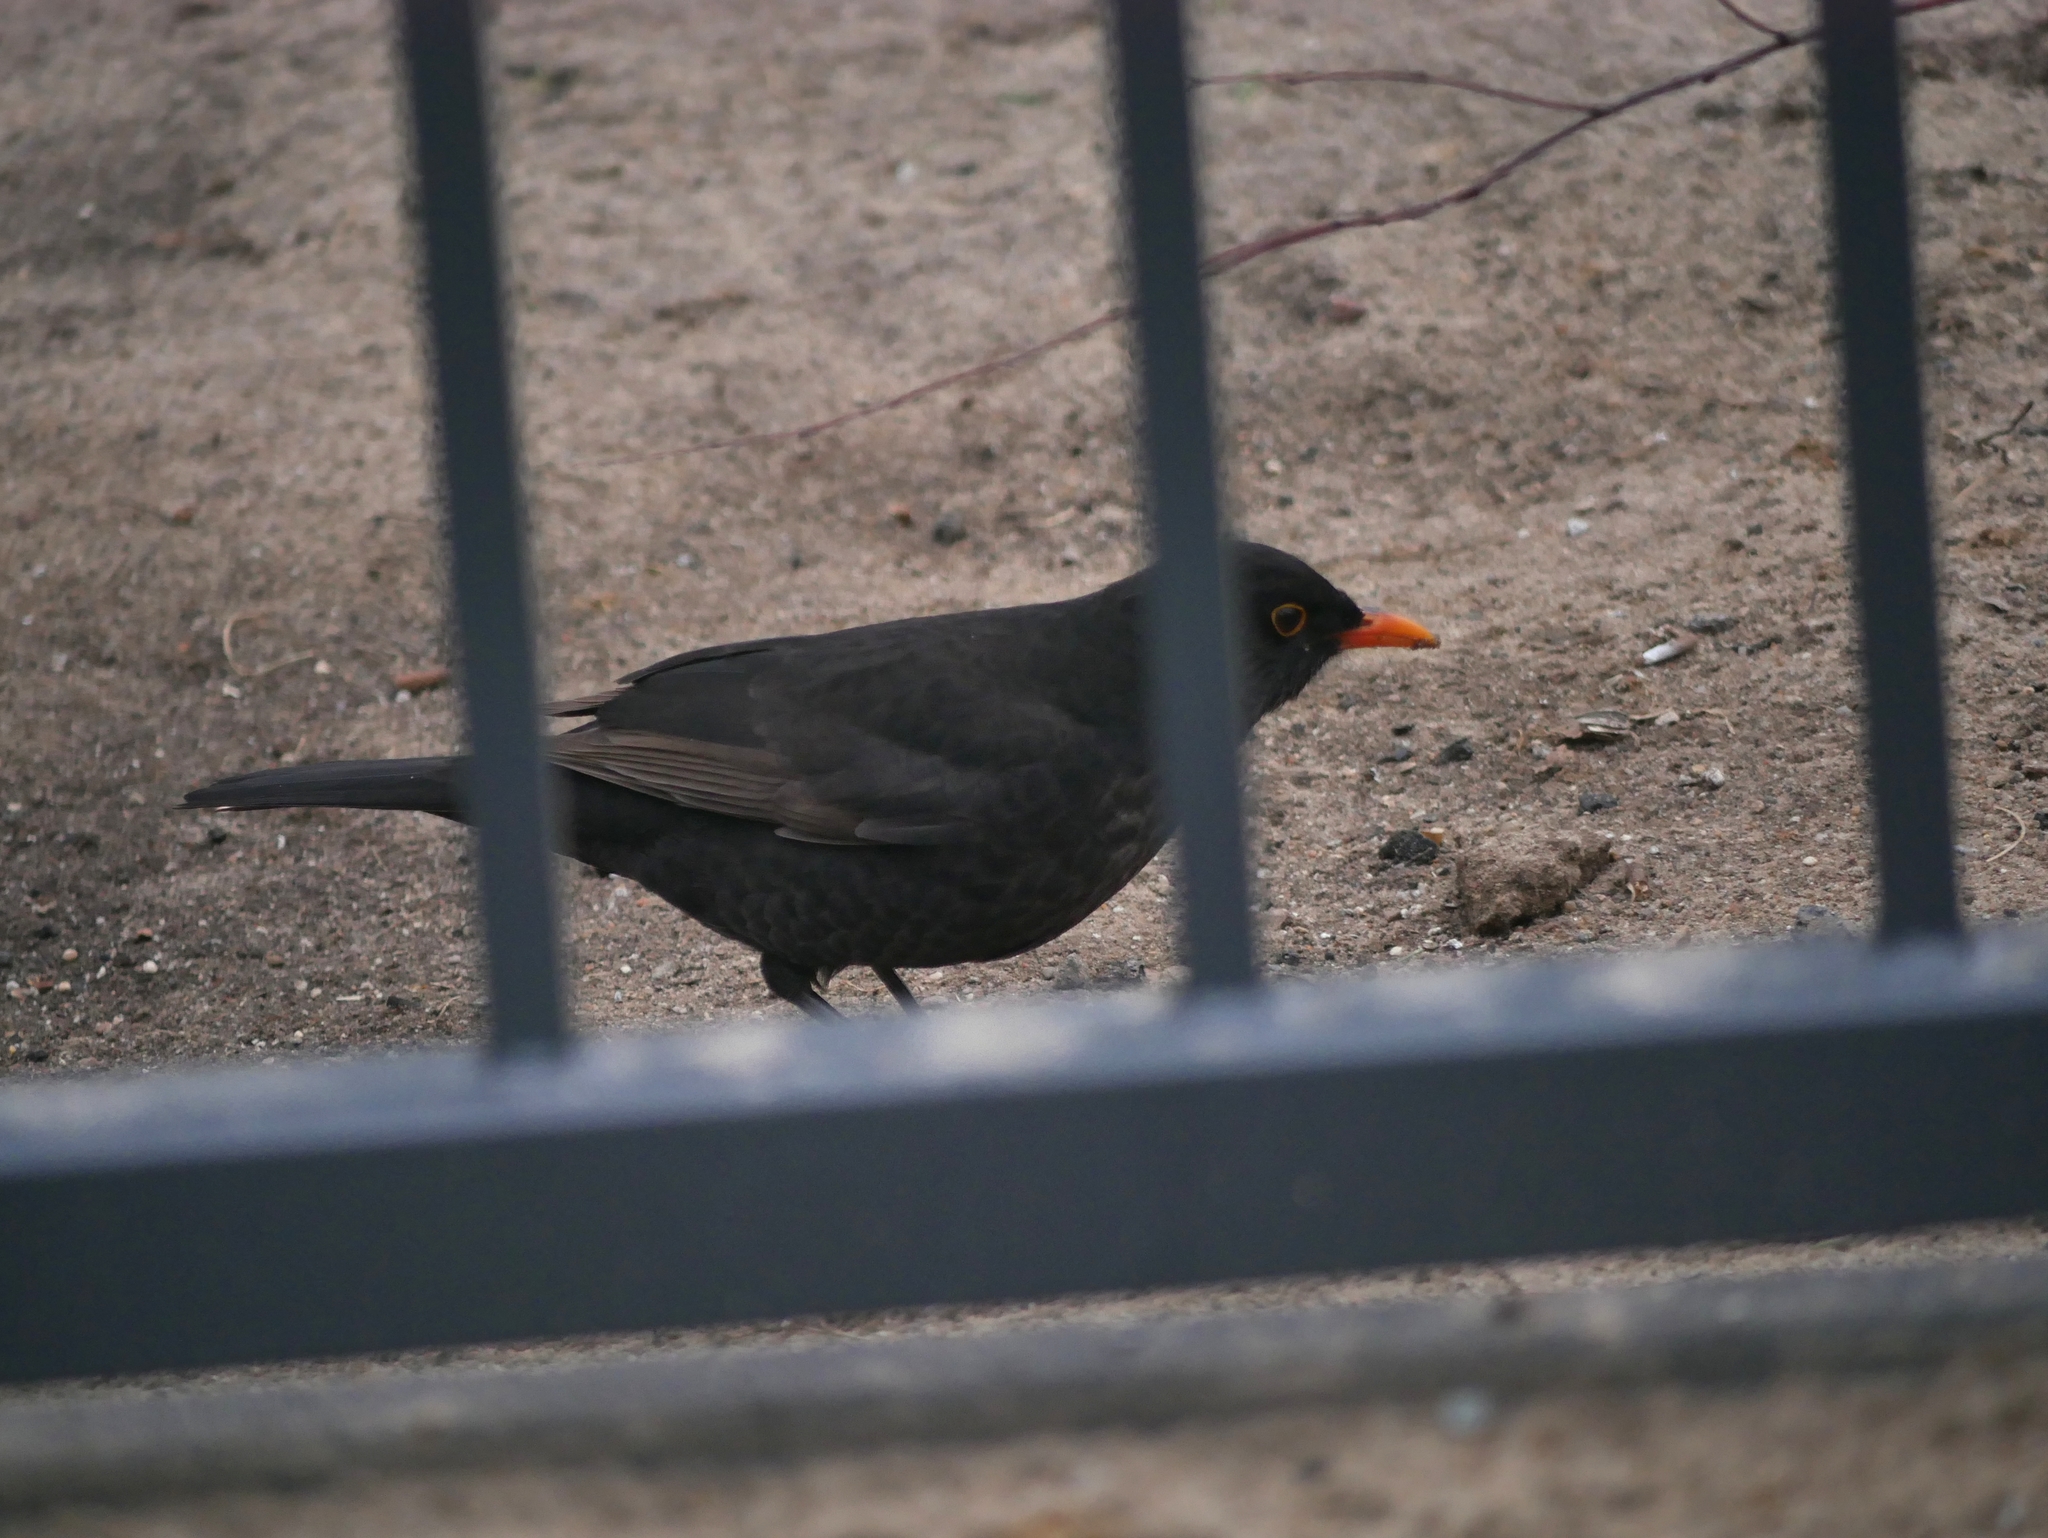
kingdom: Animalia
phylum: Chordata
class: Aves
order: Passeriformes
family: Turdidae
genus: Turdus
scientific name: Turdus merula
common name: Common blackbird
